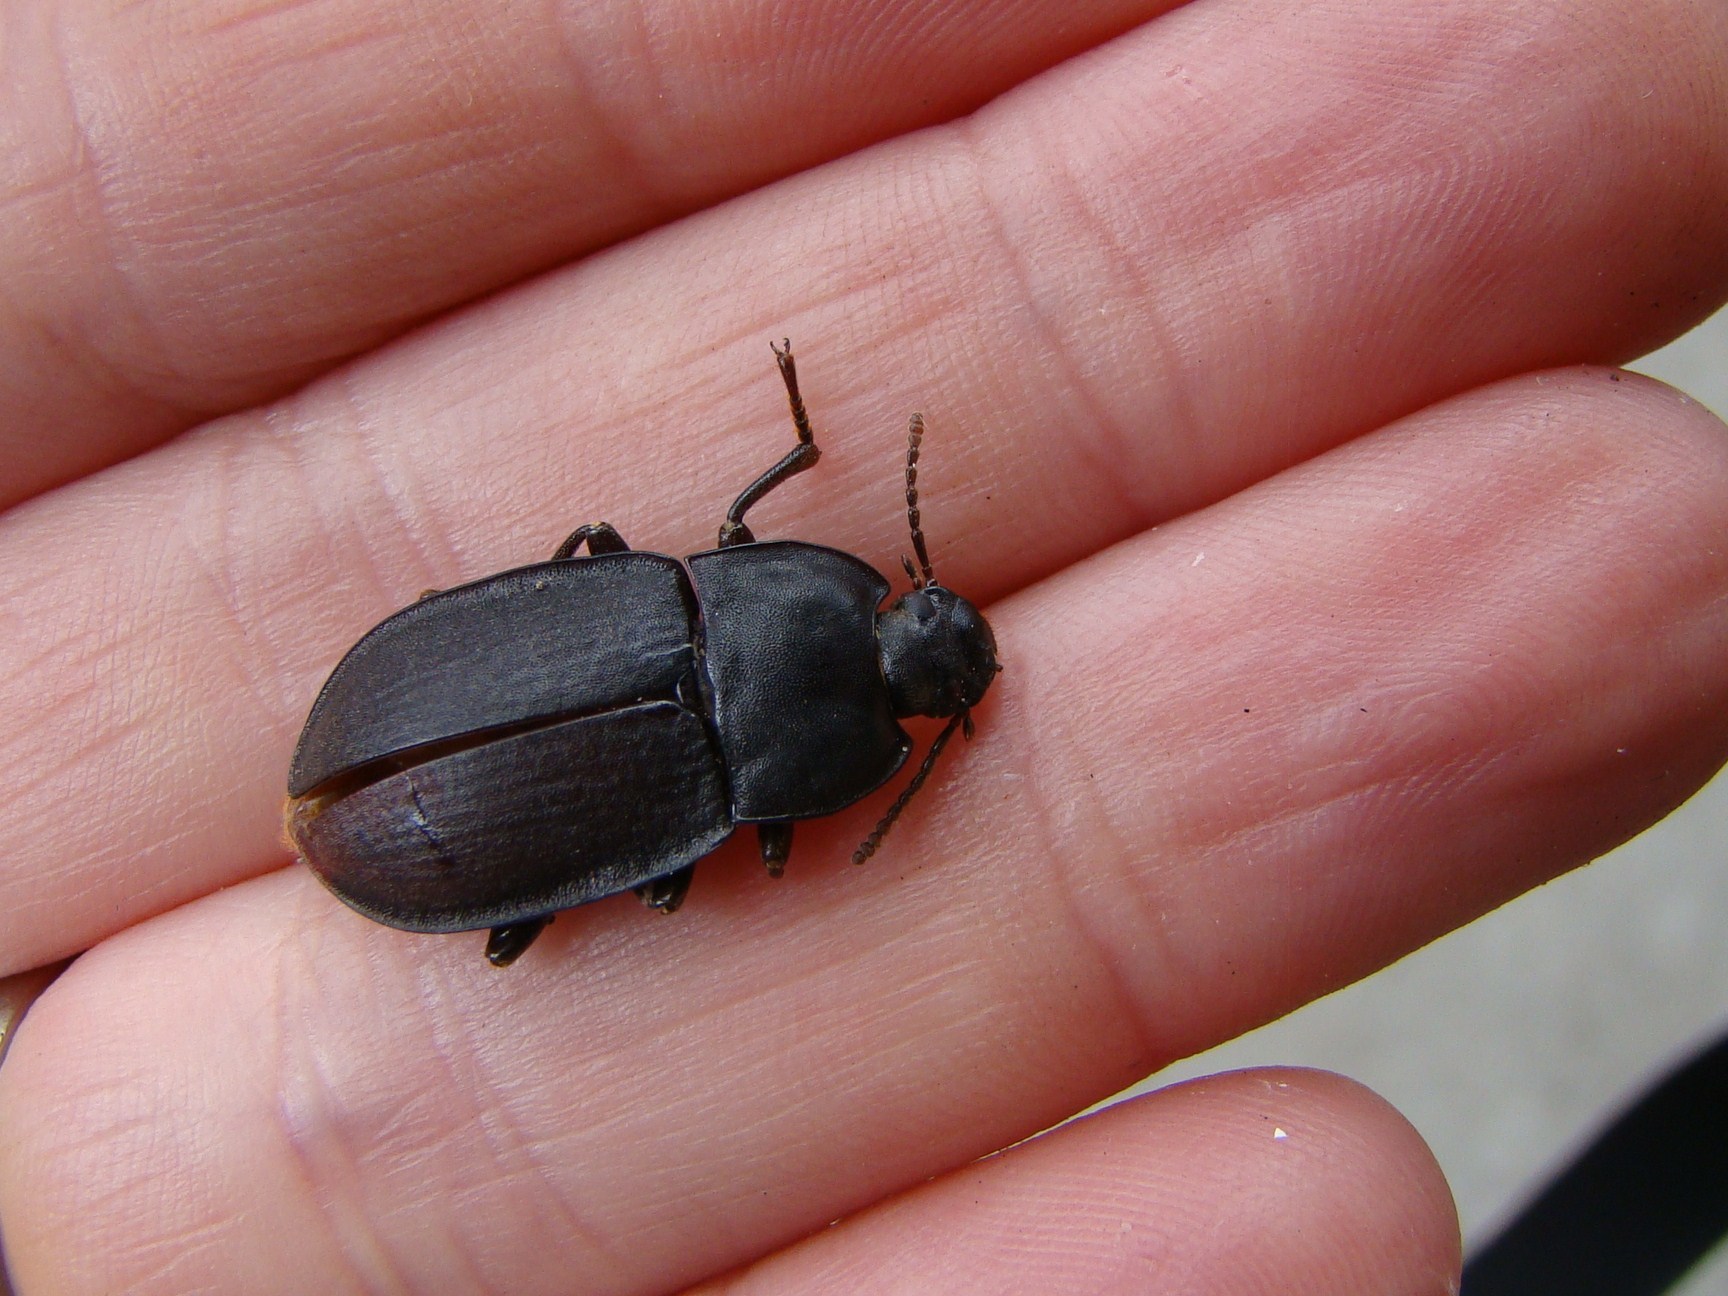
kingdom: Animalia
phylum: Arthropoda
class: Insecta
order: Coleoptera
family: Tenebrionidae
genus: Mimopeus
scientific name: Mimopeus
